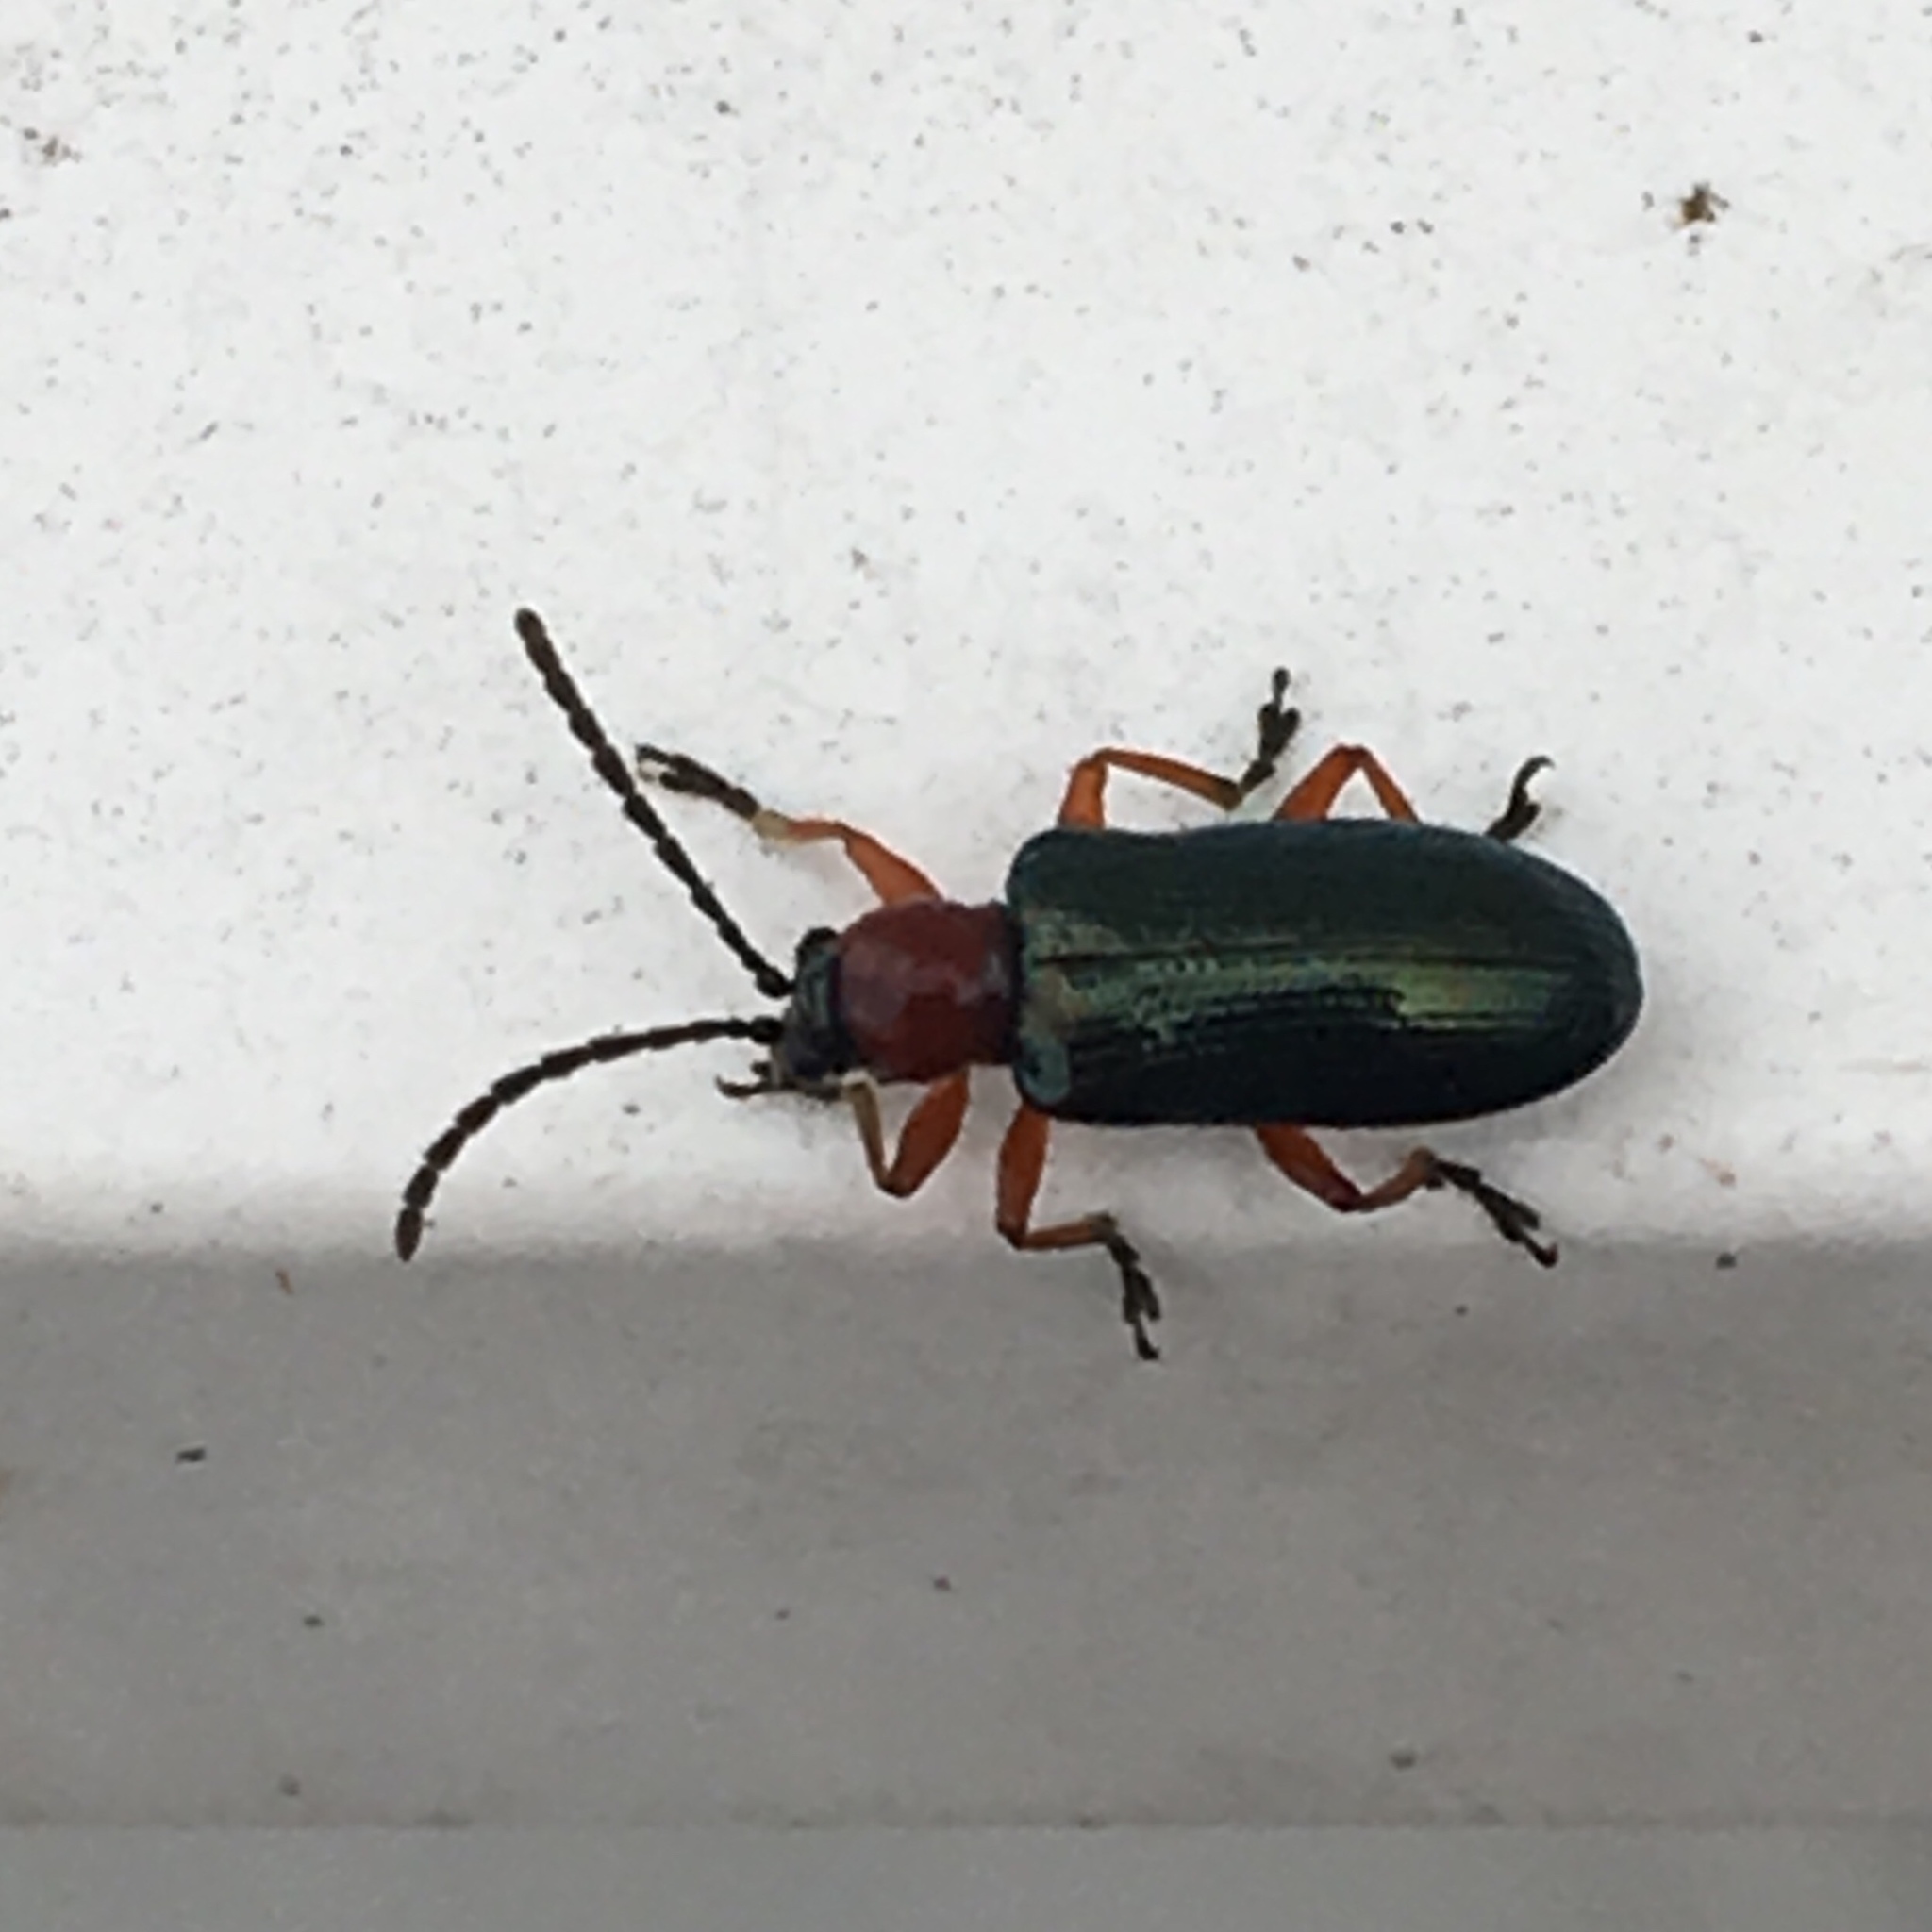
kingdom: Animalia
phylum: Arthropoda
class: Insecta
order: Coleoptera
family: Chrysomelidae
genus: Oulema
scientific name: Oulema melanopus
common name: Cereal leaf beetle
